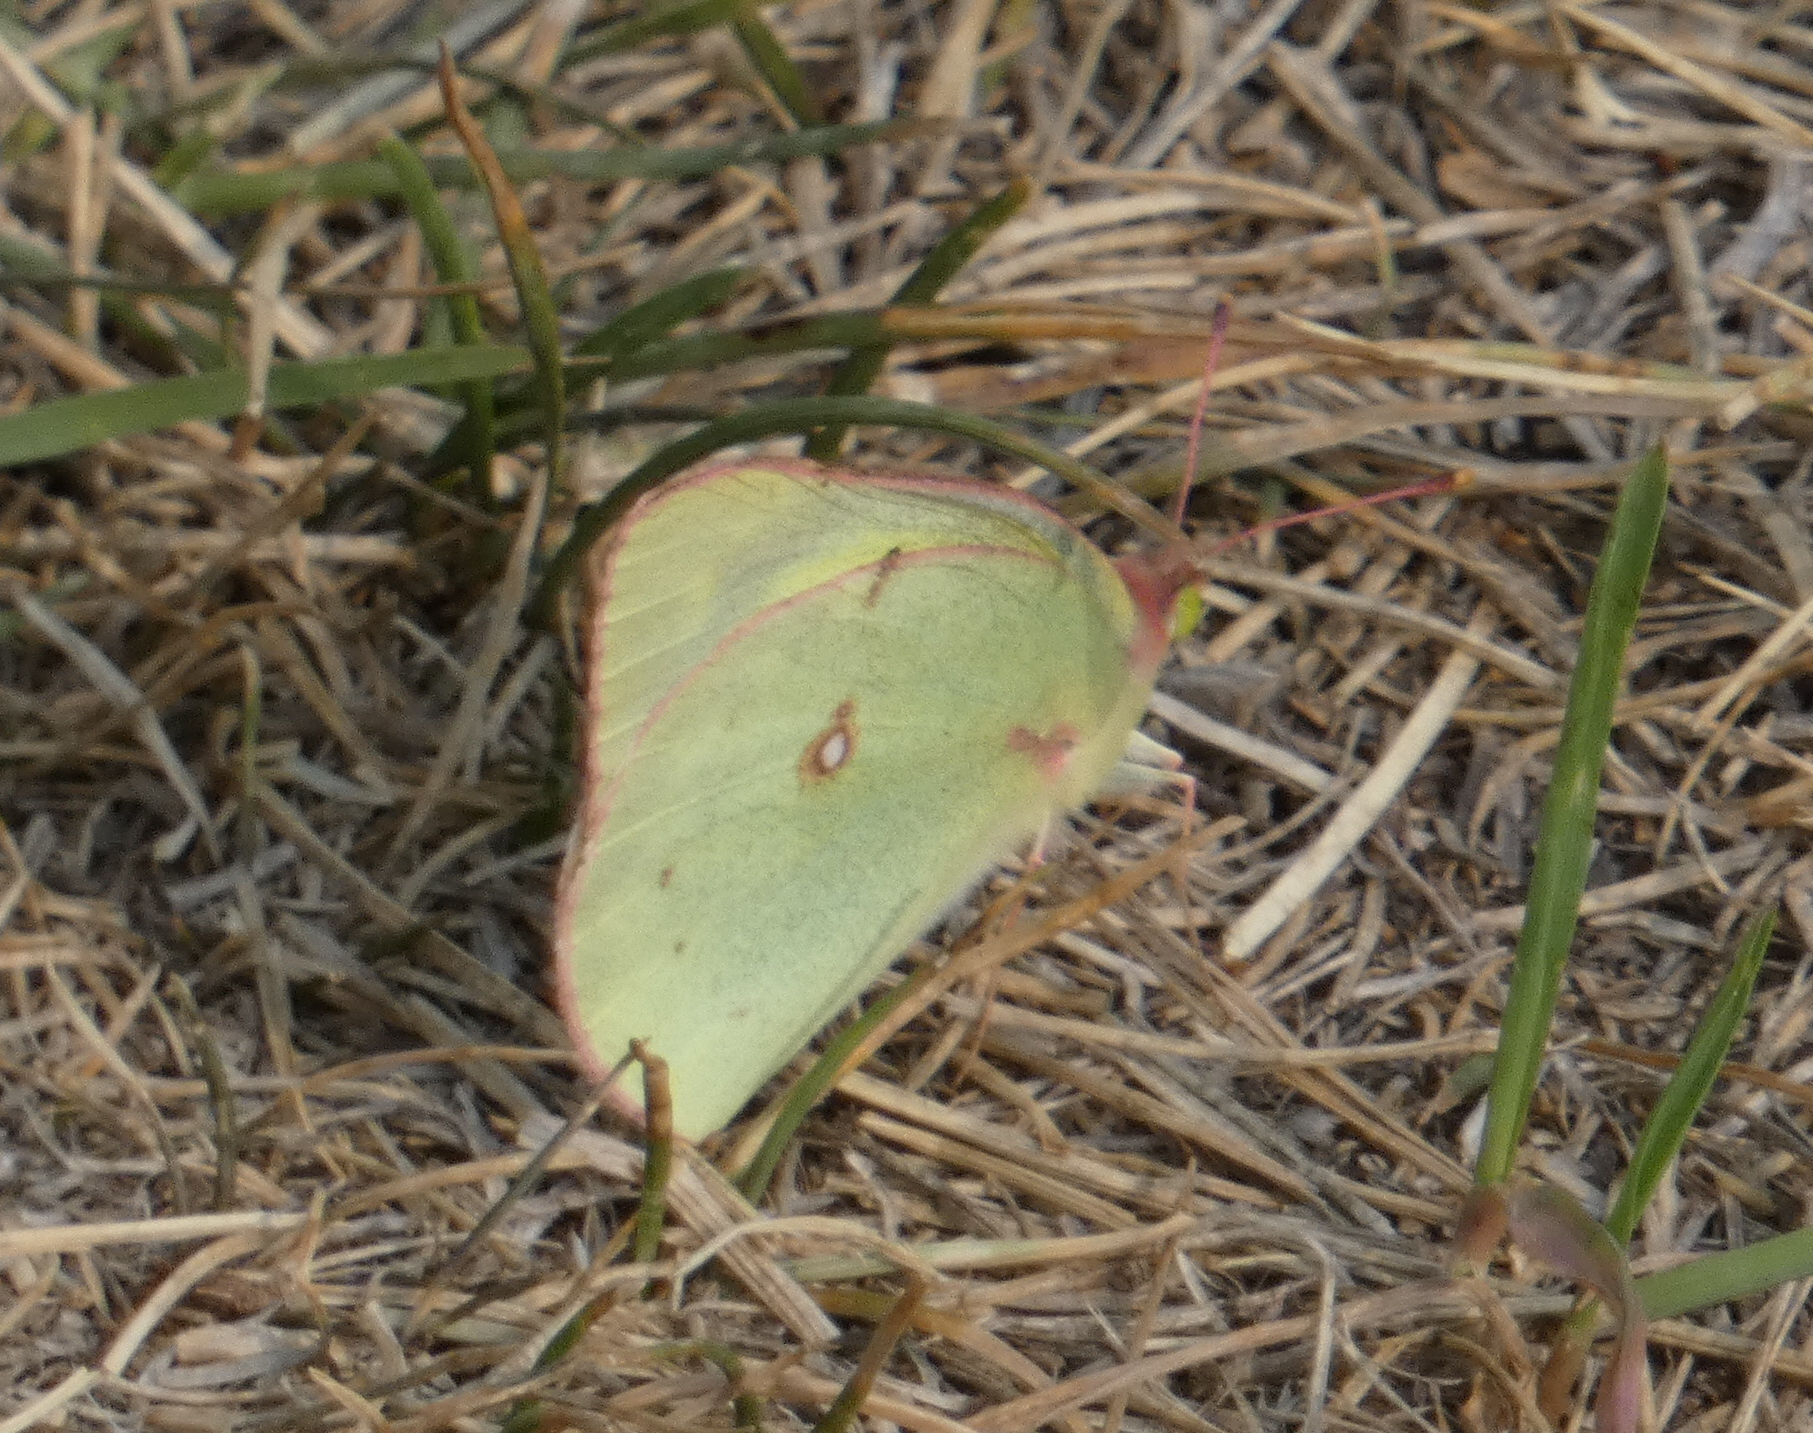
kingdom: Animalia
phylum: Arthropoda
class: Insecta
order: Lepidoptera
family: Pieridae
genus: Colias
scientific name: Colias philodice
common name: Clouded sulphur
